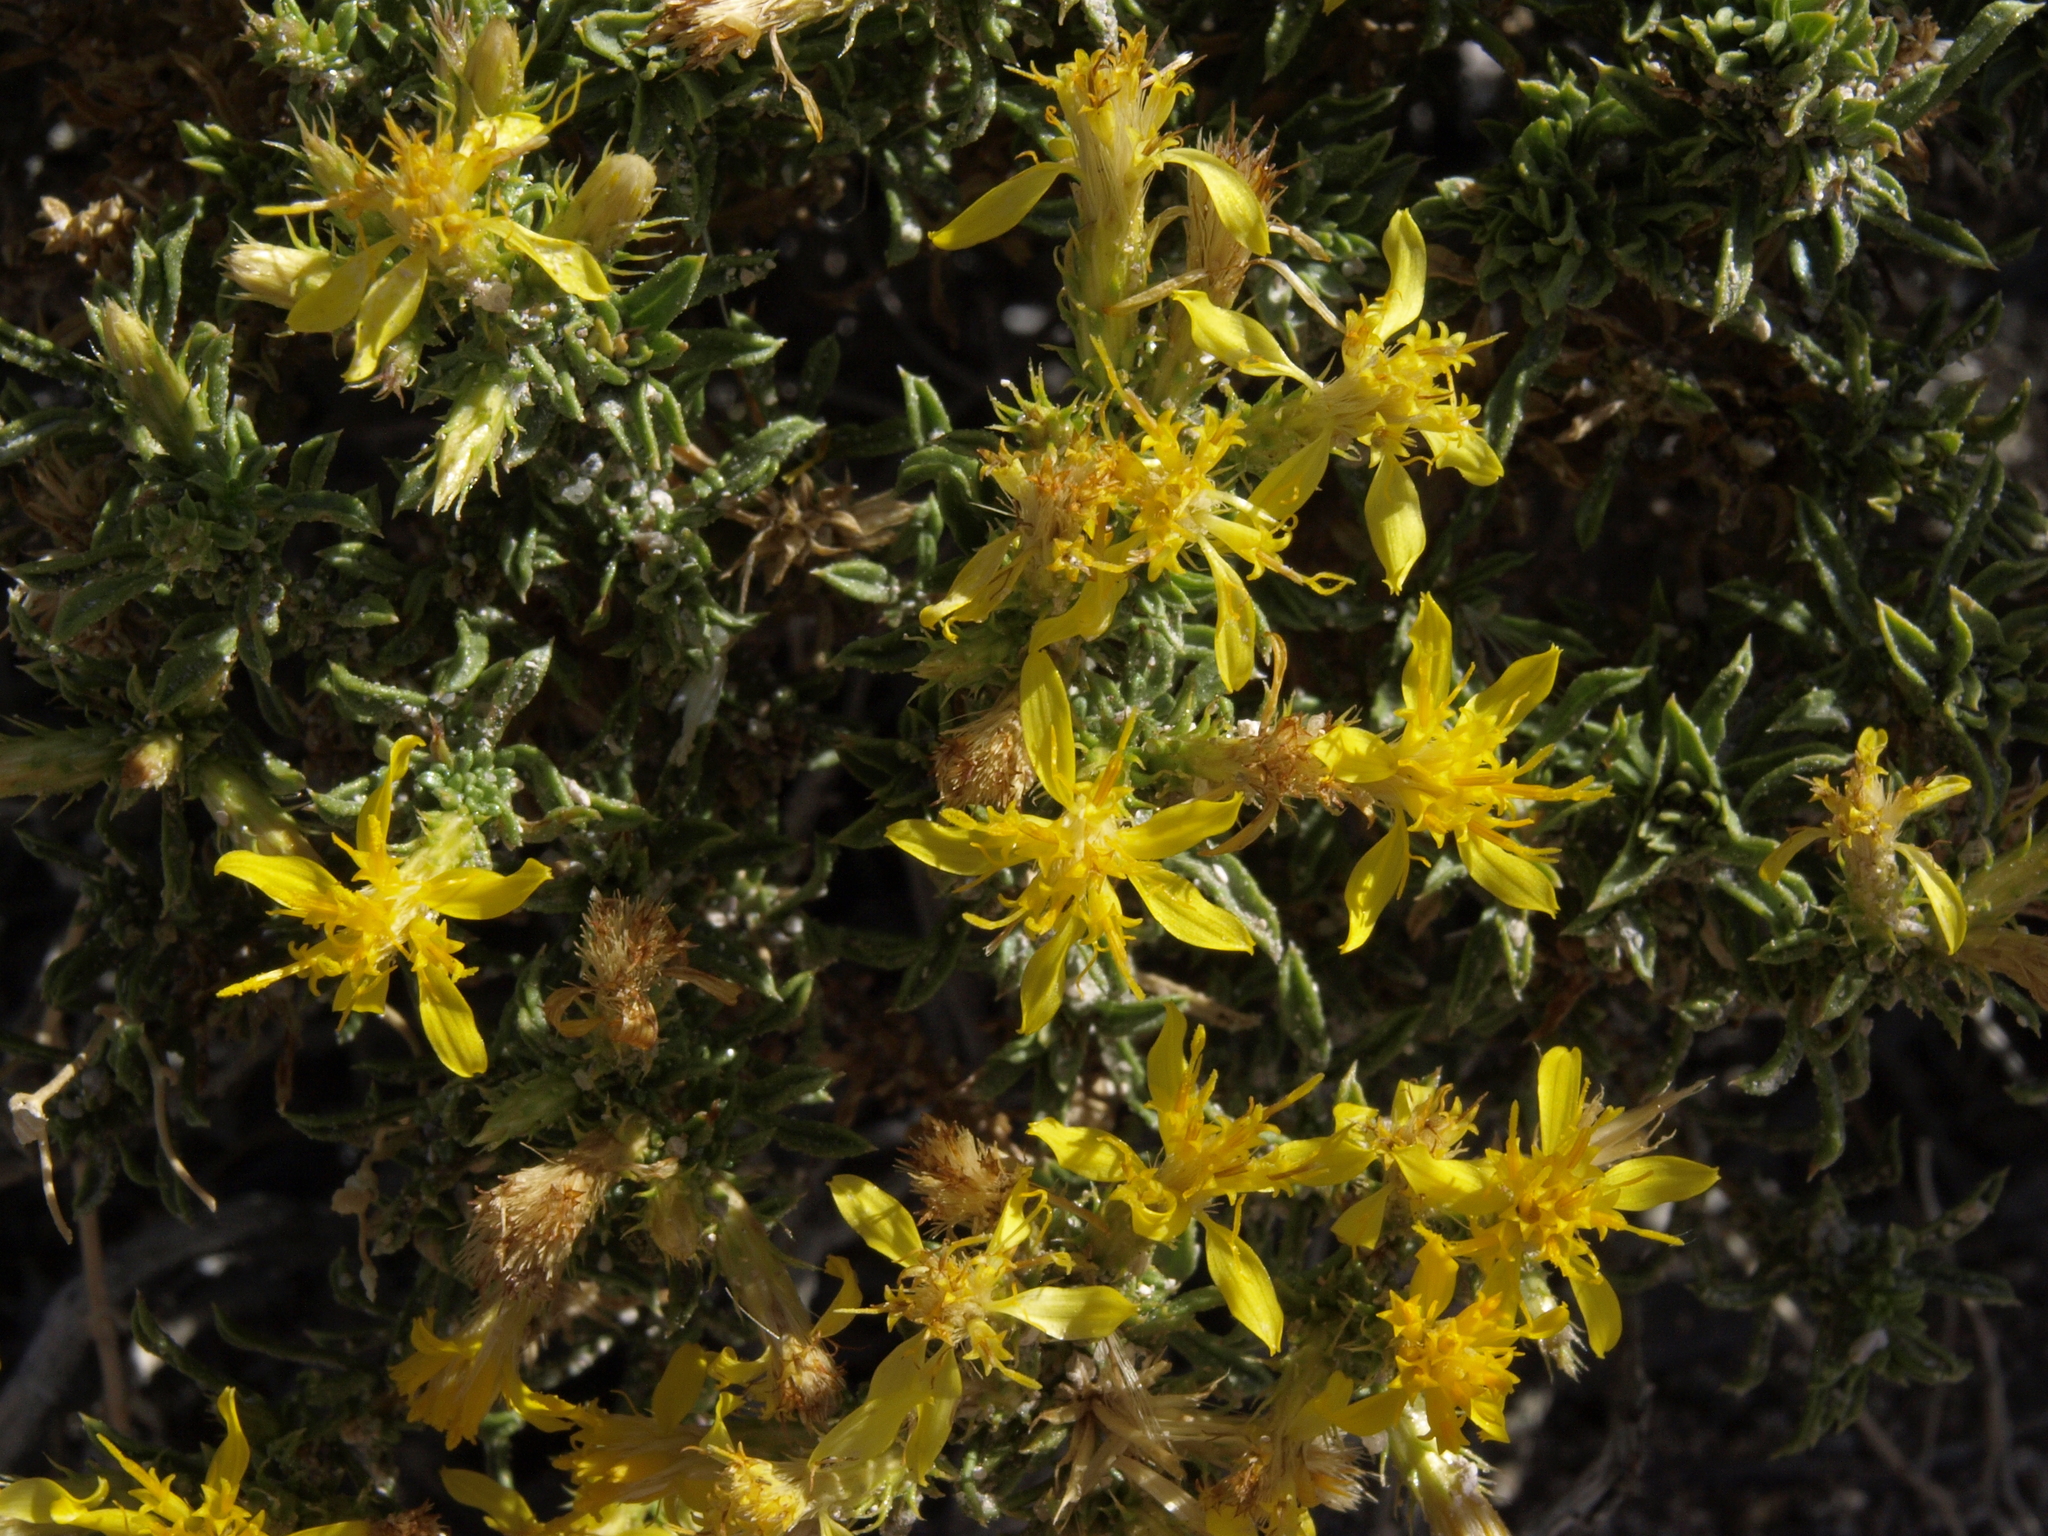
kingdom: Plantae
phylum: Tracheophyta
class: Magnoliopsida
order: Asterales
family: Asteraceae
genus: Ericameria
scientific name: Ericameria nana
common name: Dwarf goldenbush
